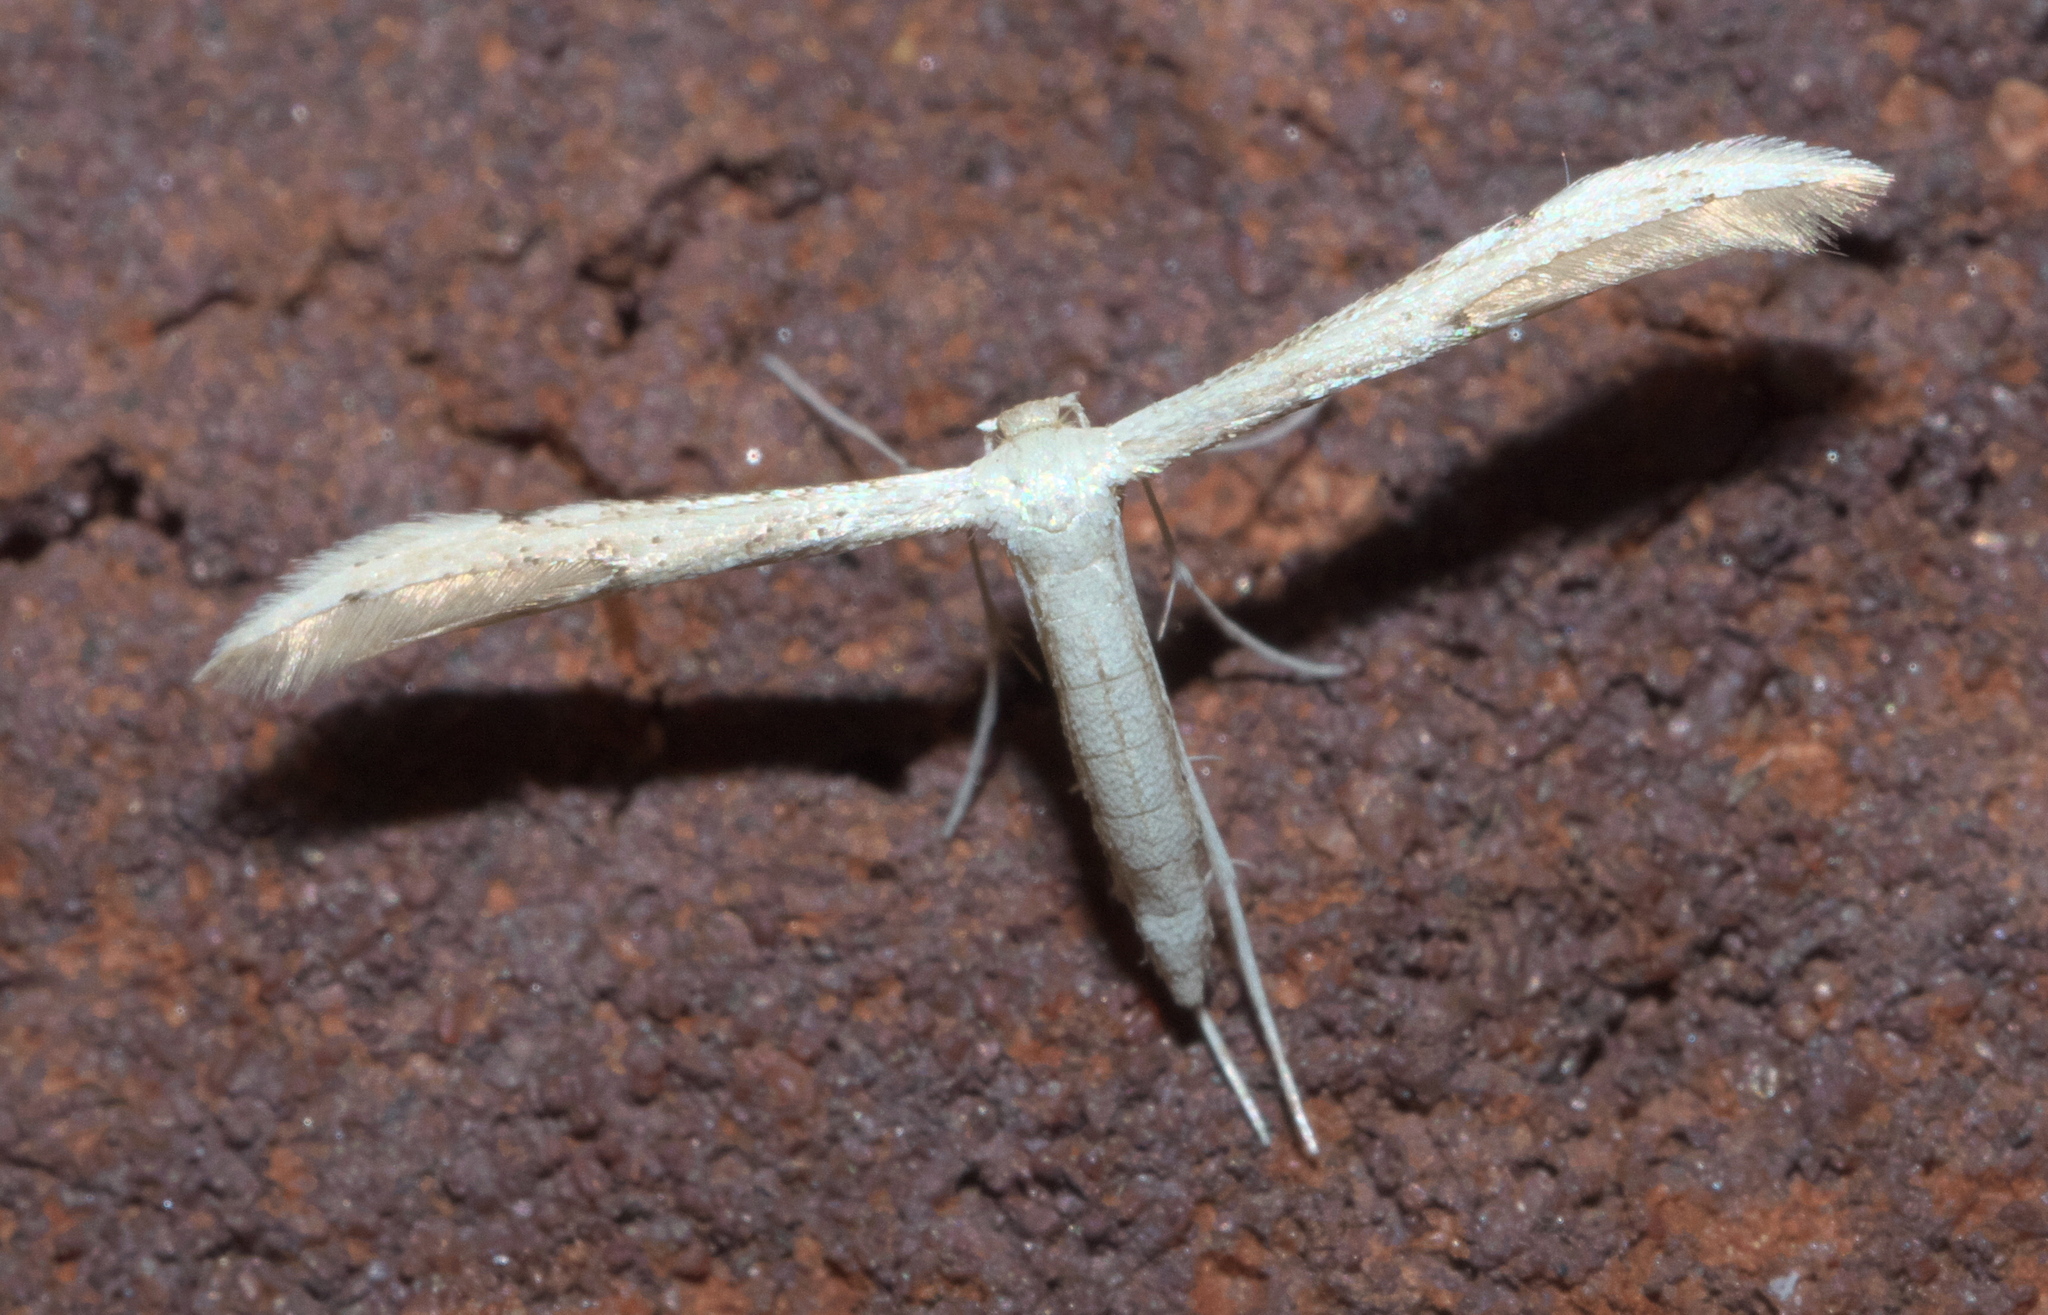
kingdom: Animalia
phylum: Arthropoda
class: Insecta
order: Lepidoptera
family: Pterophoridae
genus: Adaina
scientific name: Adaina
